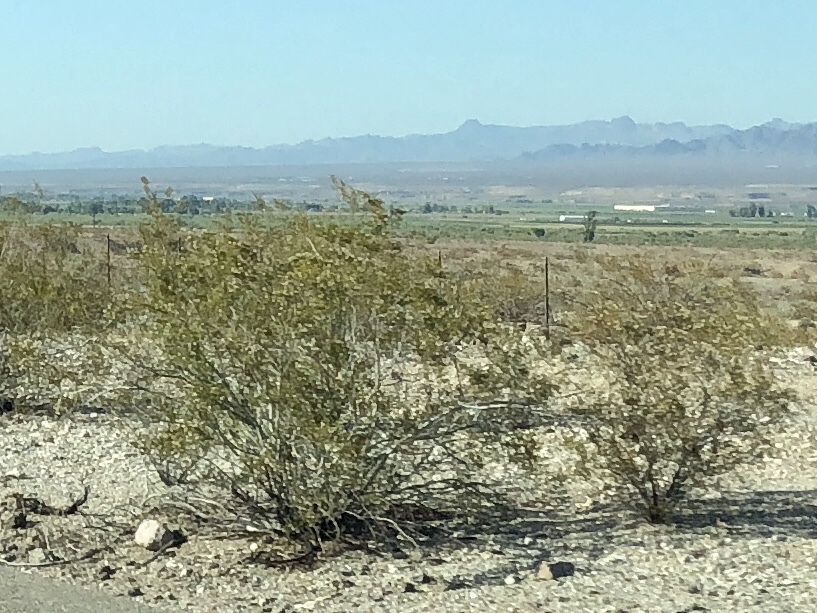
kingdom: Plantae
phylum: Tracheophyta
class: Magnoliopsida
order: Zygophyllales
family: Zygophyllaceae
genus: Larrea
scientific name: Larrea tridentata
